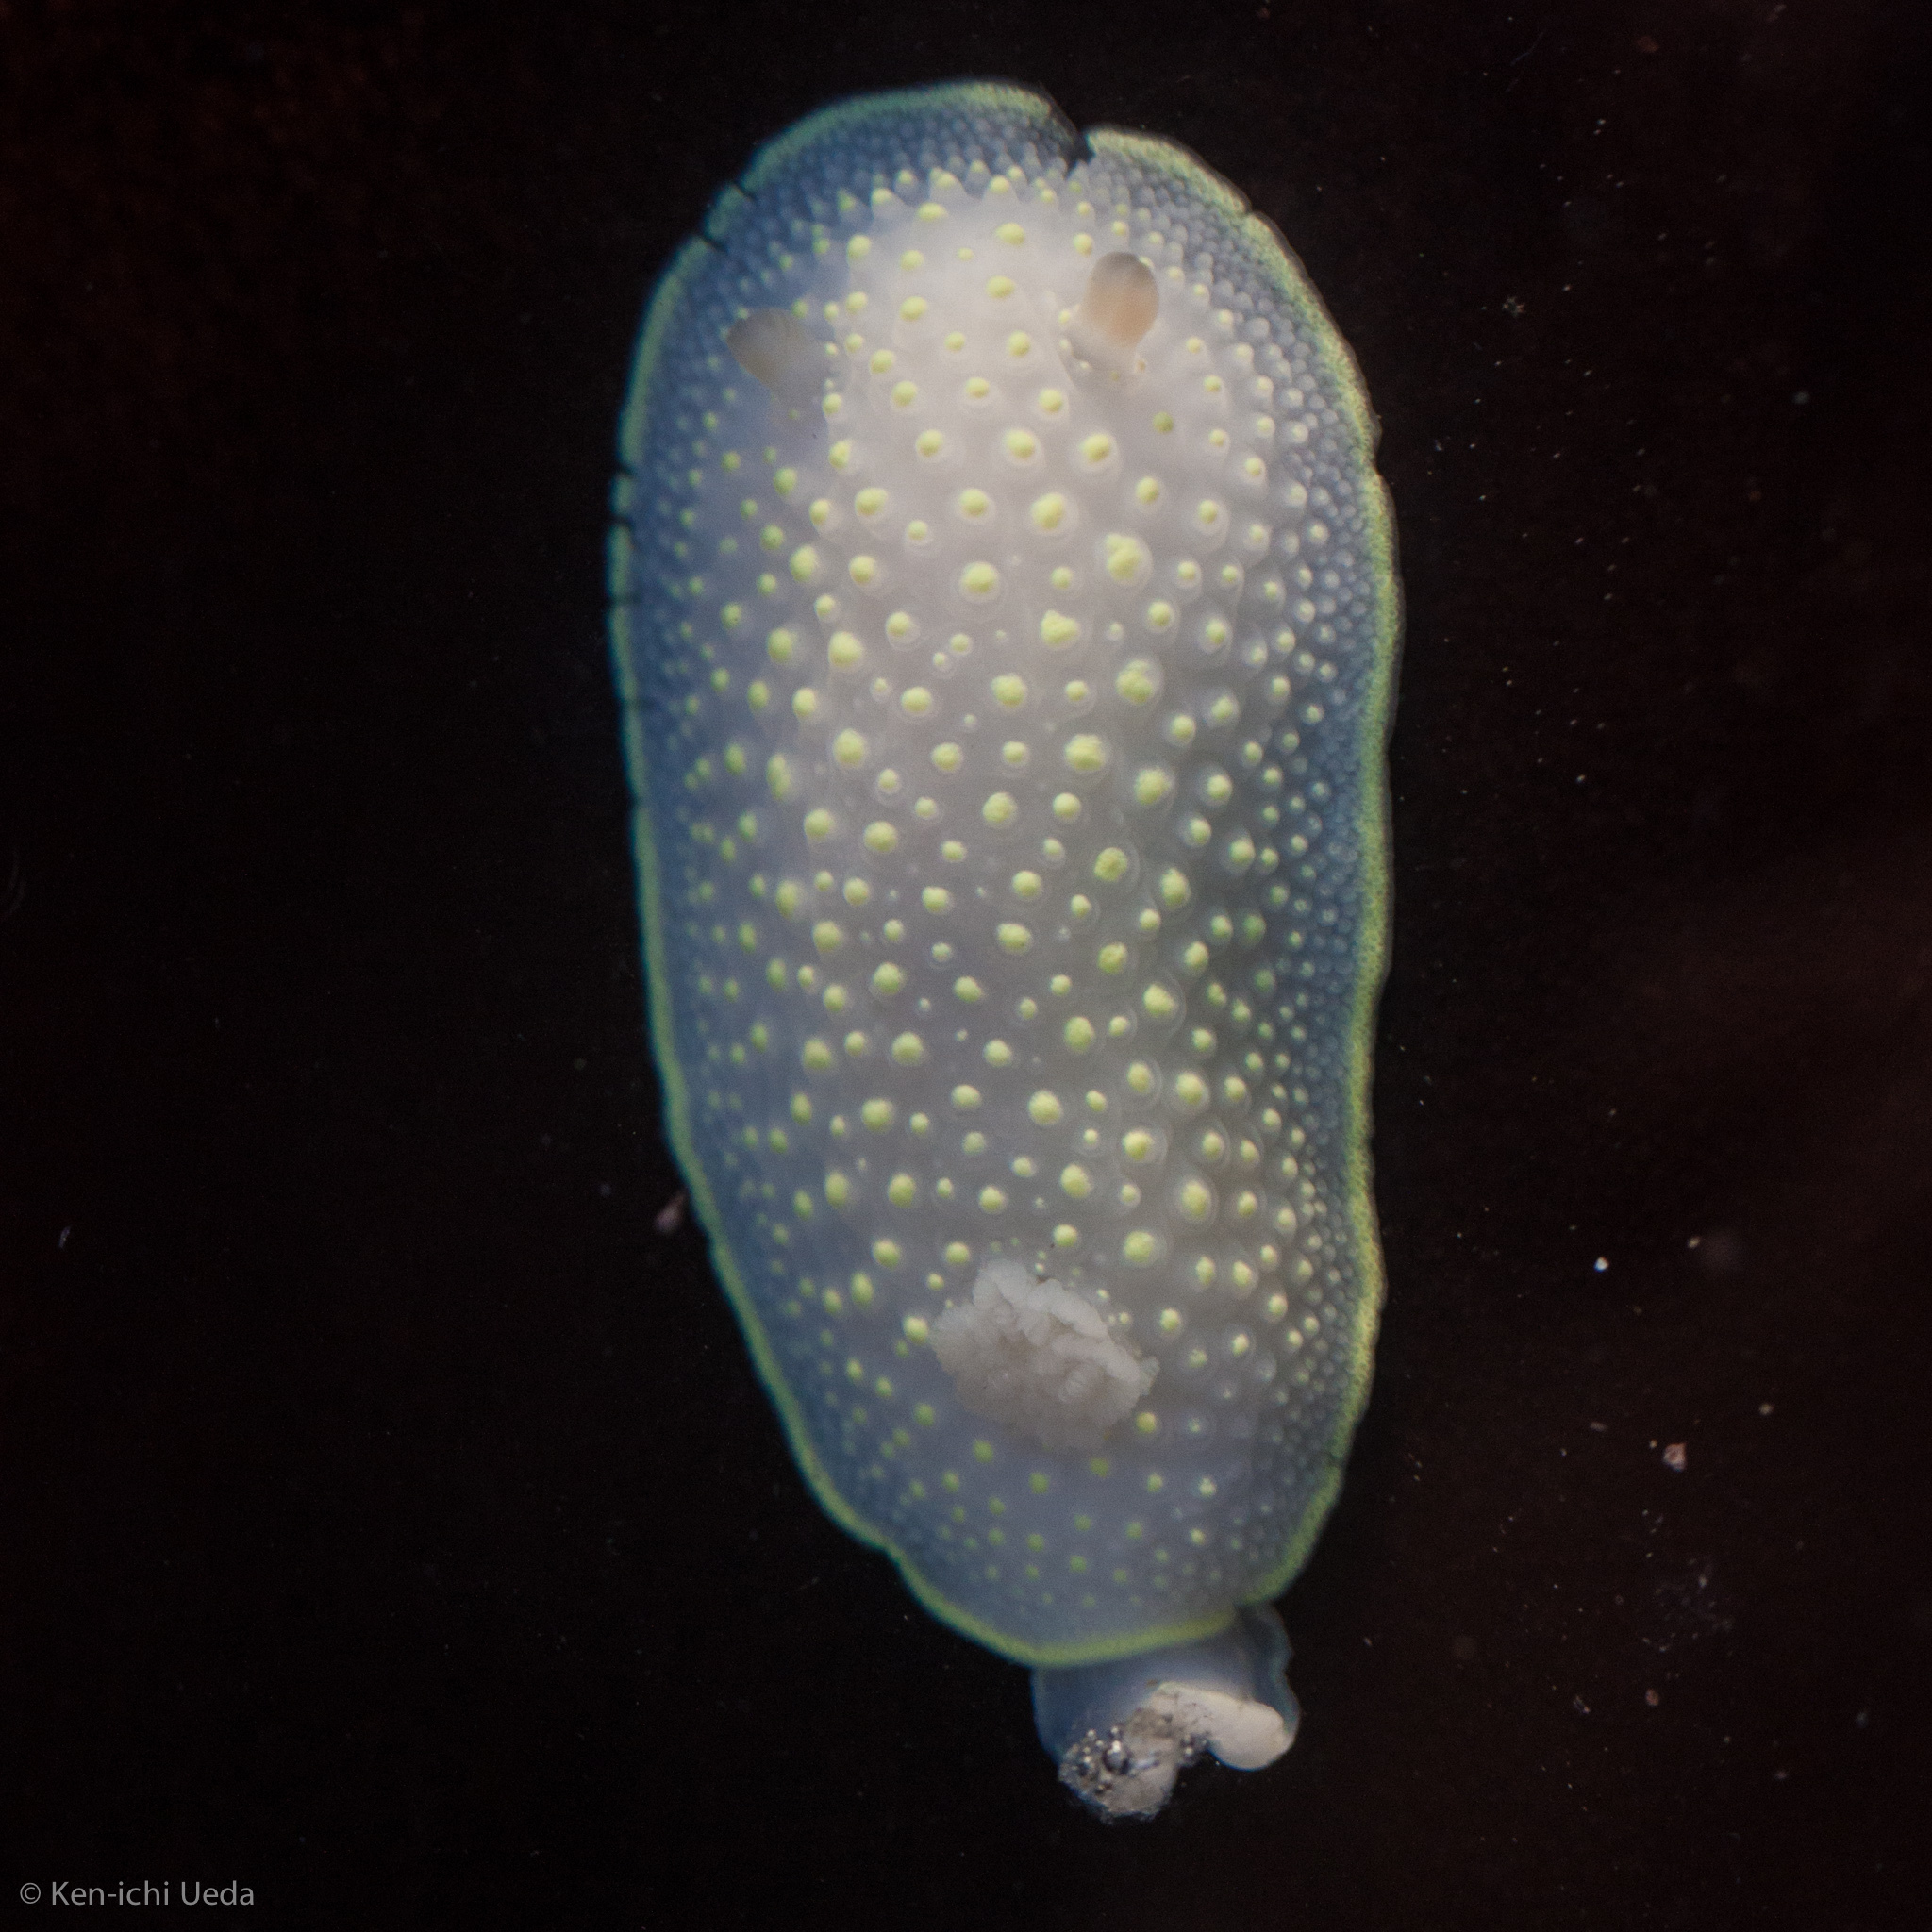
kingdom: Animalia
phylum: Mollusca
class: Gastropoda
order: Nudibranchia
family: Cadlinidae
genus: Cadlina
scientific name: Cadlina luteomarginata
